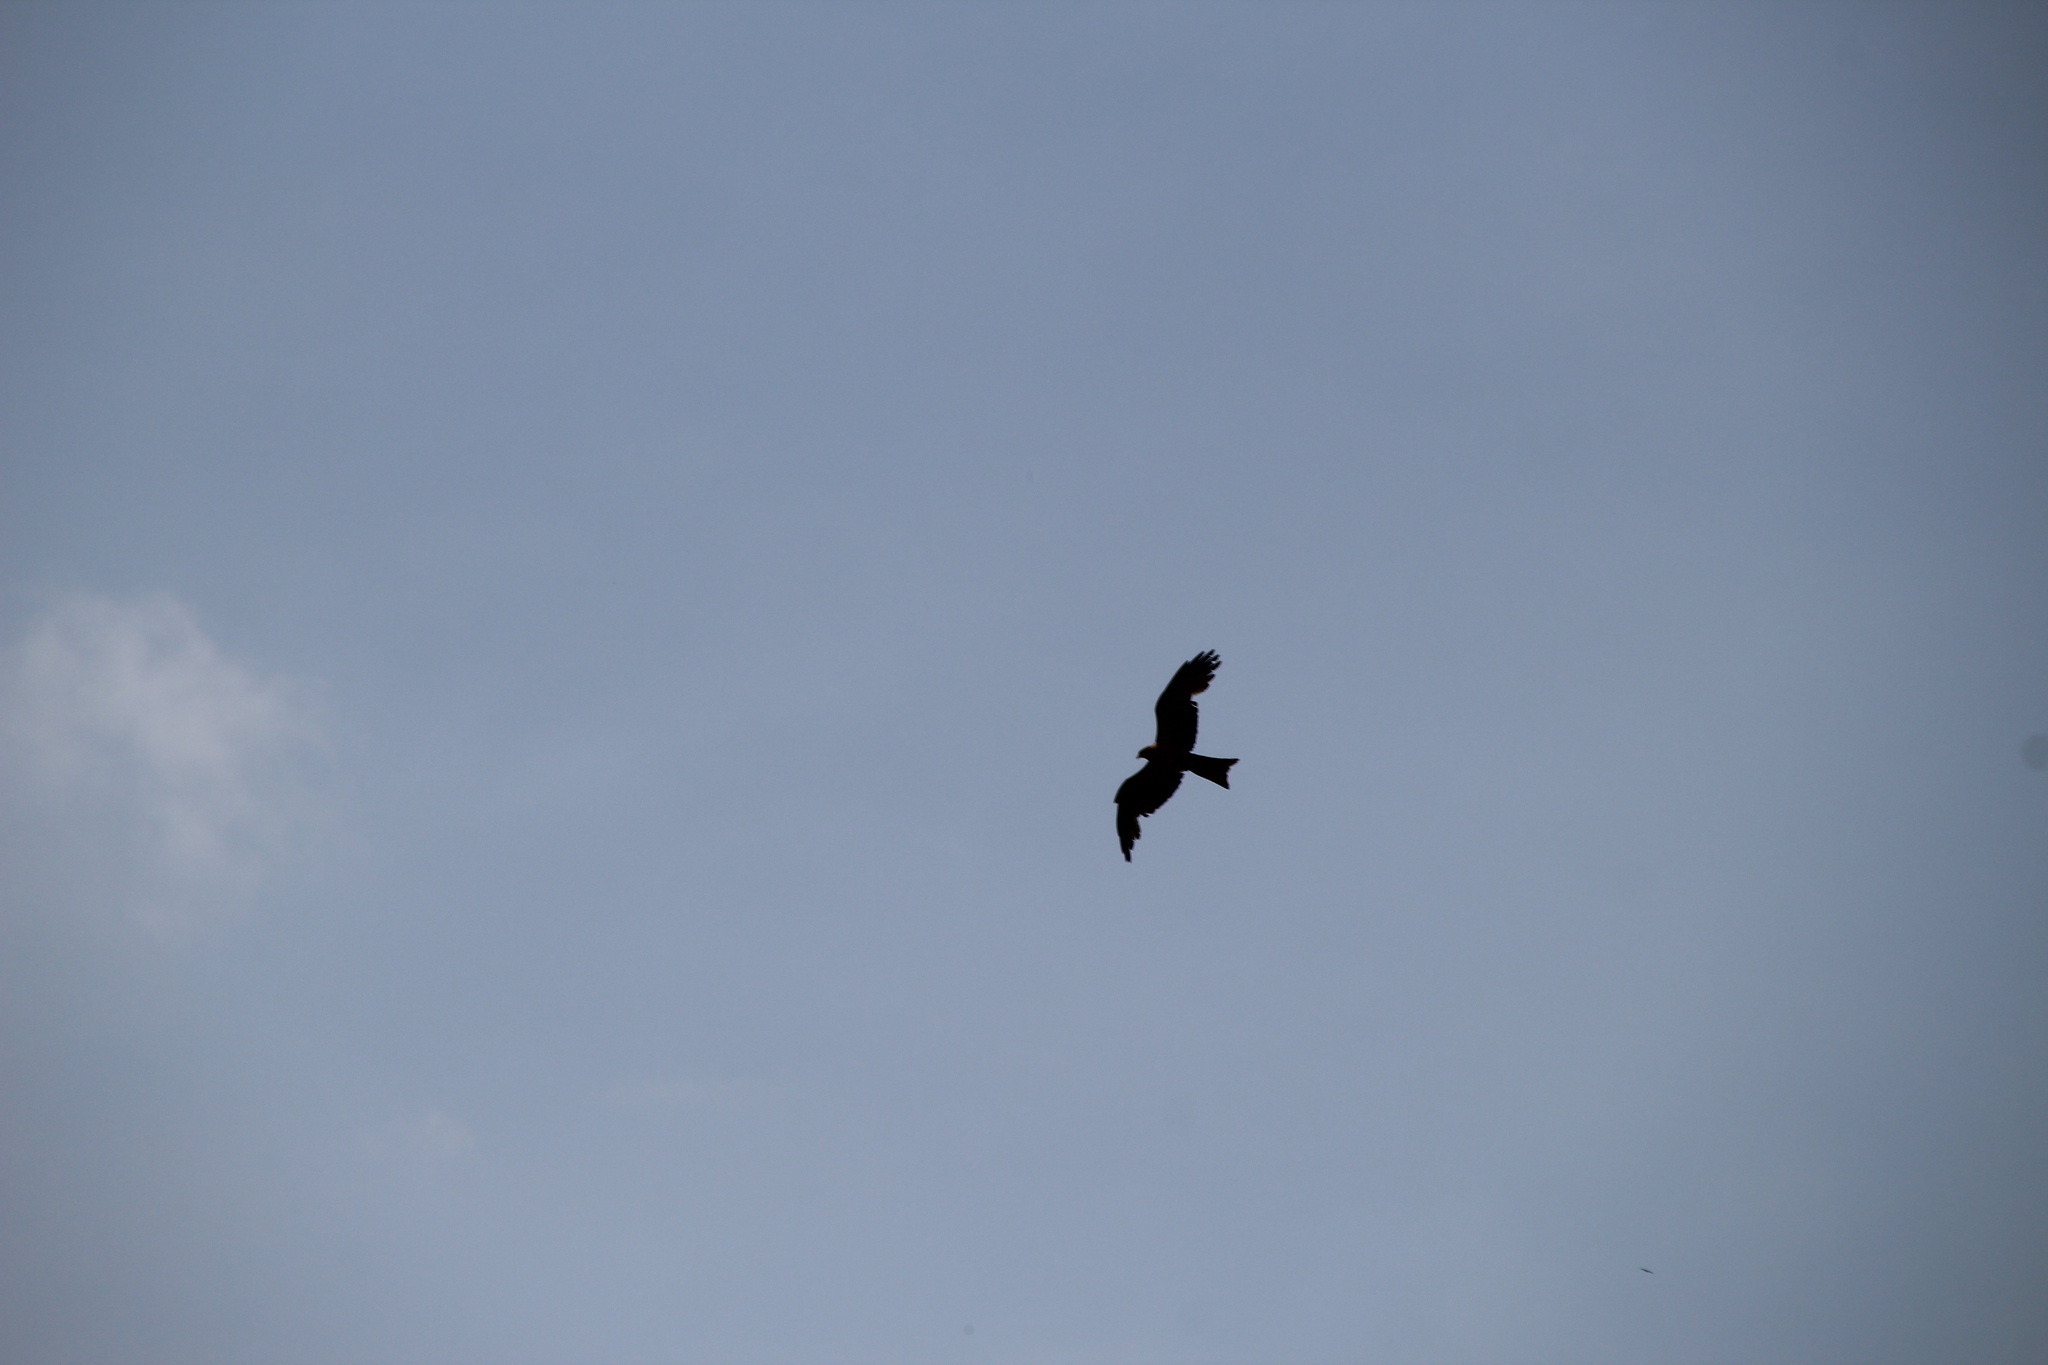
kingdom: Animalia
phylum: Chordata
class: Aves
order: Accipitriformes
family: Accipitridae
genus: Milvus
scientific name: Milvus migrans
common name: Black kite
